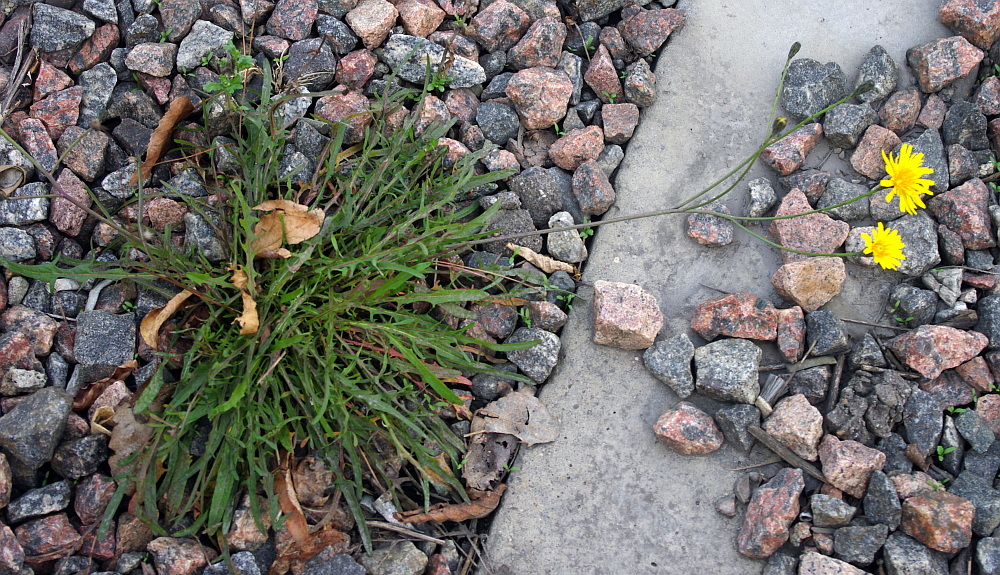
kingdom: Plantae
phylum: Tracheophyta
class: Magnoliopsida
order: Asterales
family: Asteraceae
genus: Scorzoneroides
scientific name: Scorzoneroides autumnalis
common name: Autumn hawkbit
